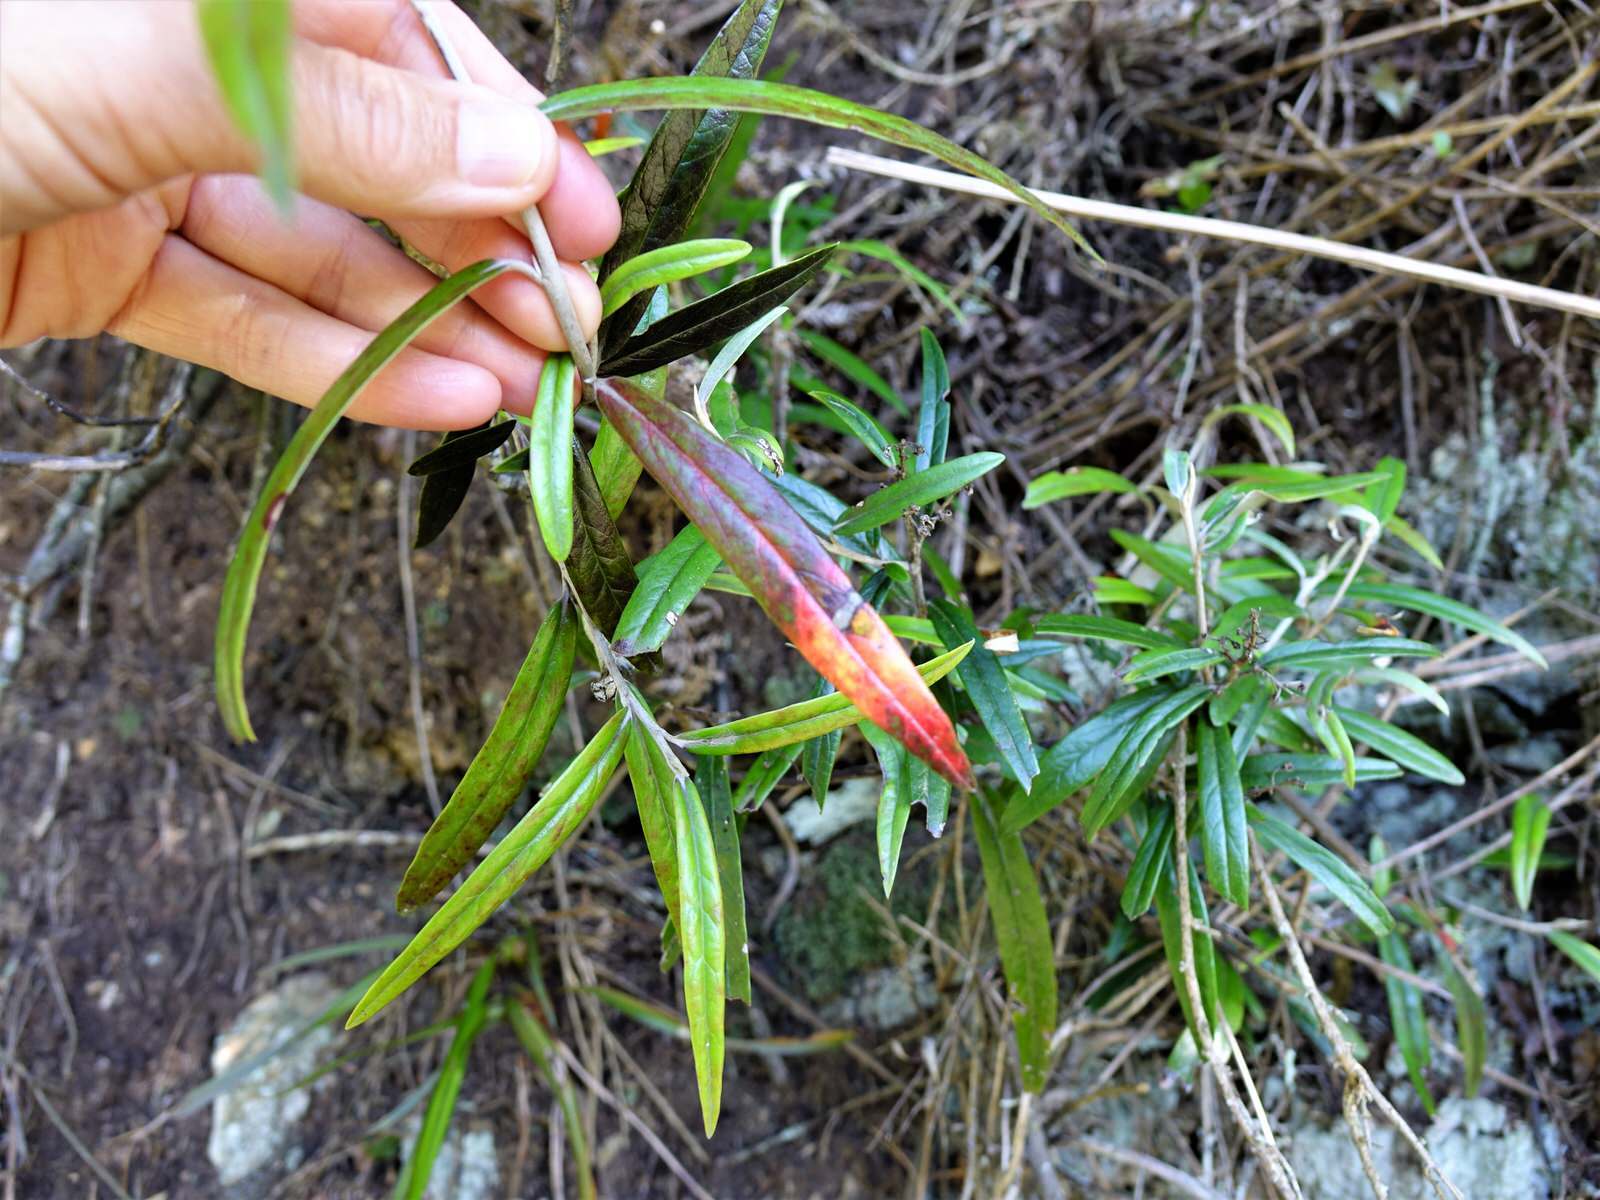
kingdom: Plantae
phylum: Tracheophyta
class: Magnoliopsida
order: Asterales
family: Argophyllaceae
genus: Corokia
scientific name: Corokia buddleioides
